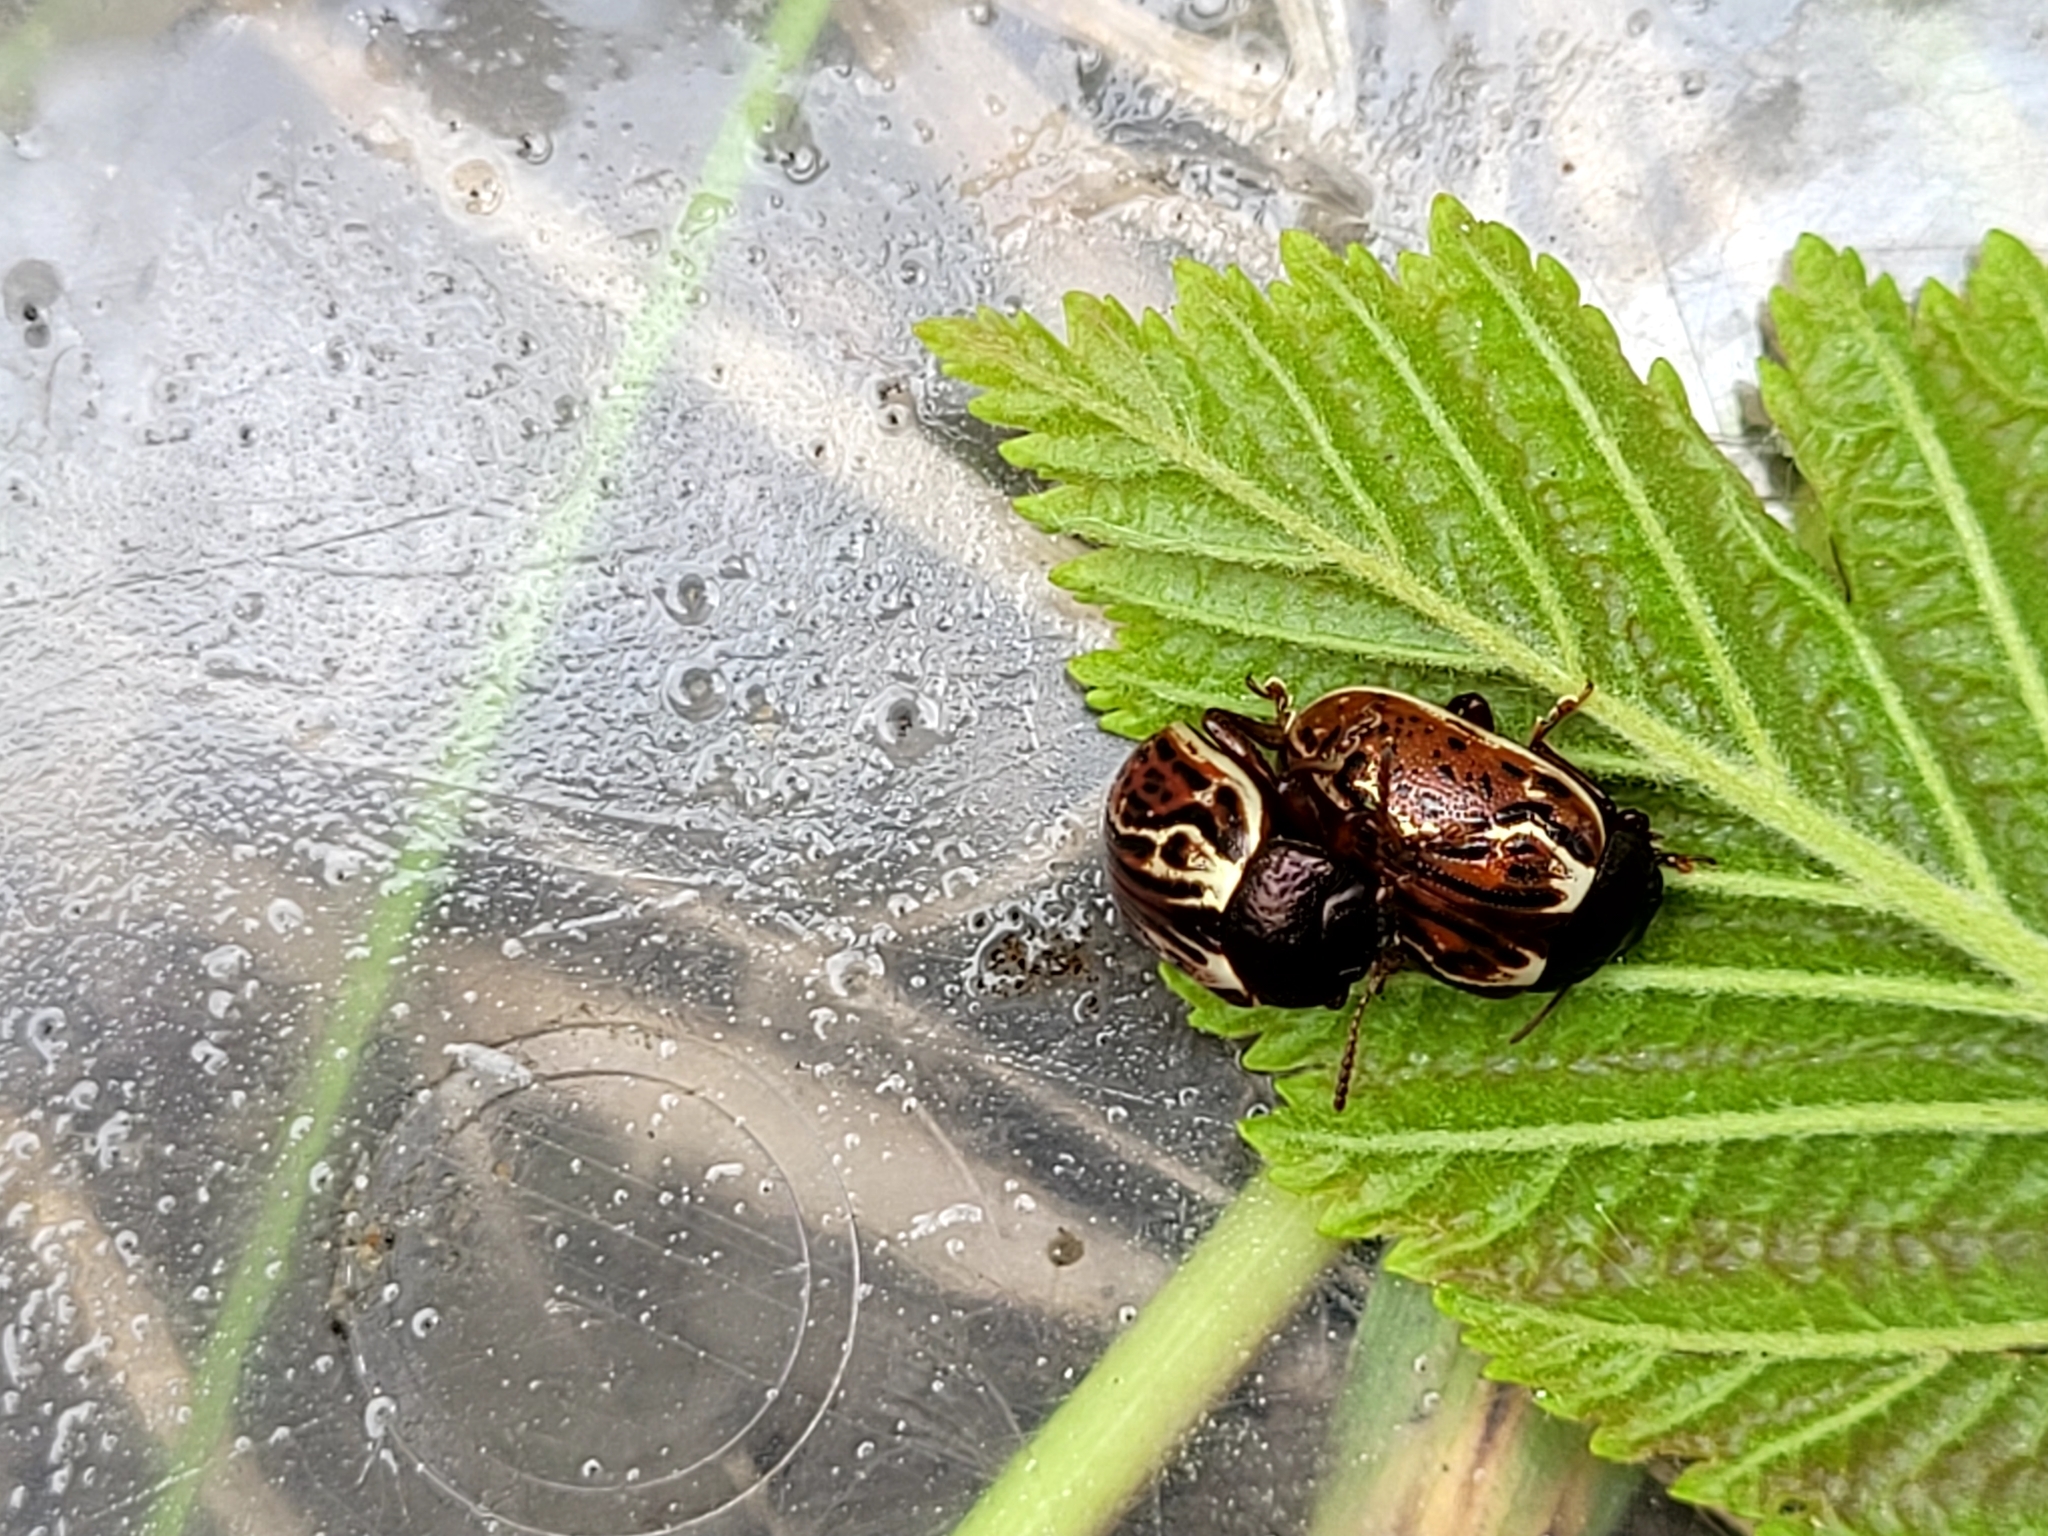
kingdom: Animalia
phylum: Arthropoda
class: Insecta
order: Coleoptera
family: Chrysomelidae
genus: Calligrapha
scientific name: Calligrapha alni
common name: Russet alder leaf beetle
